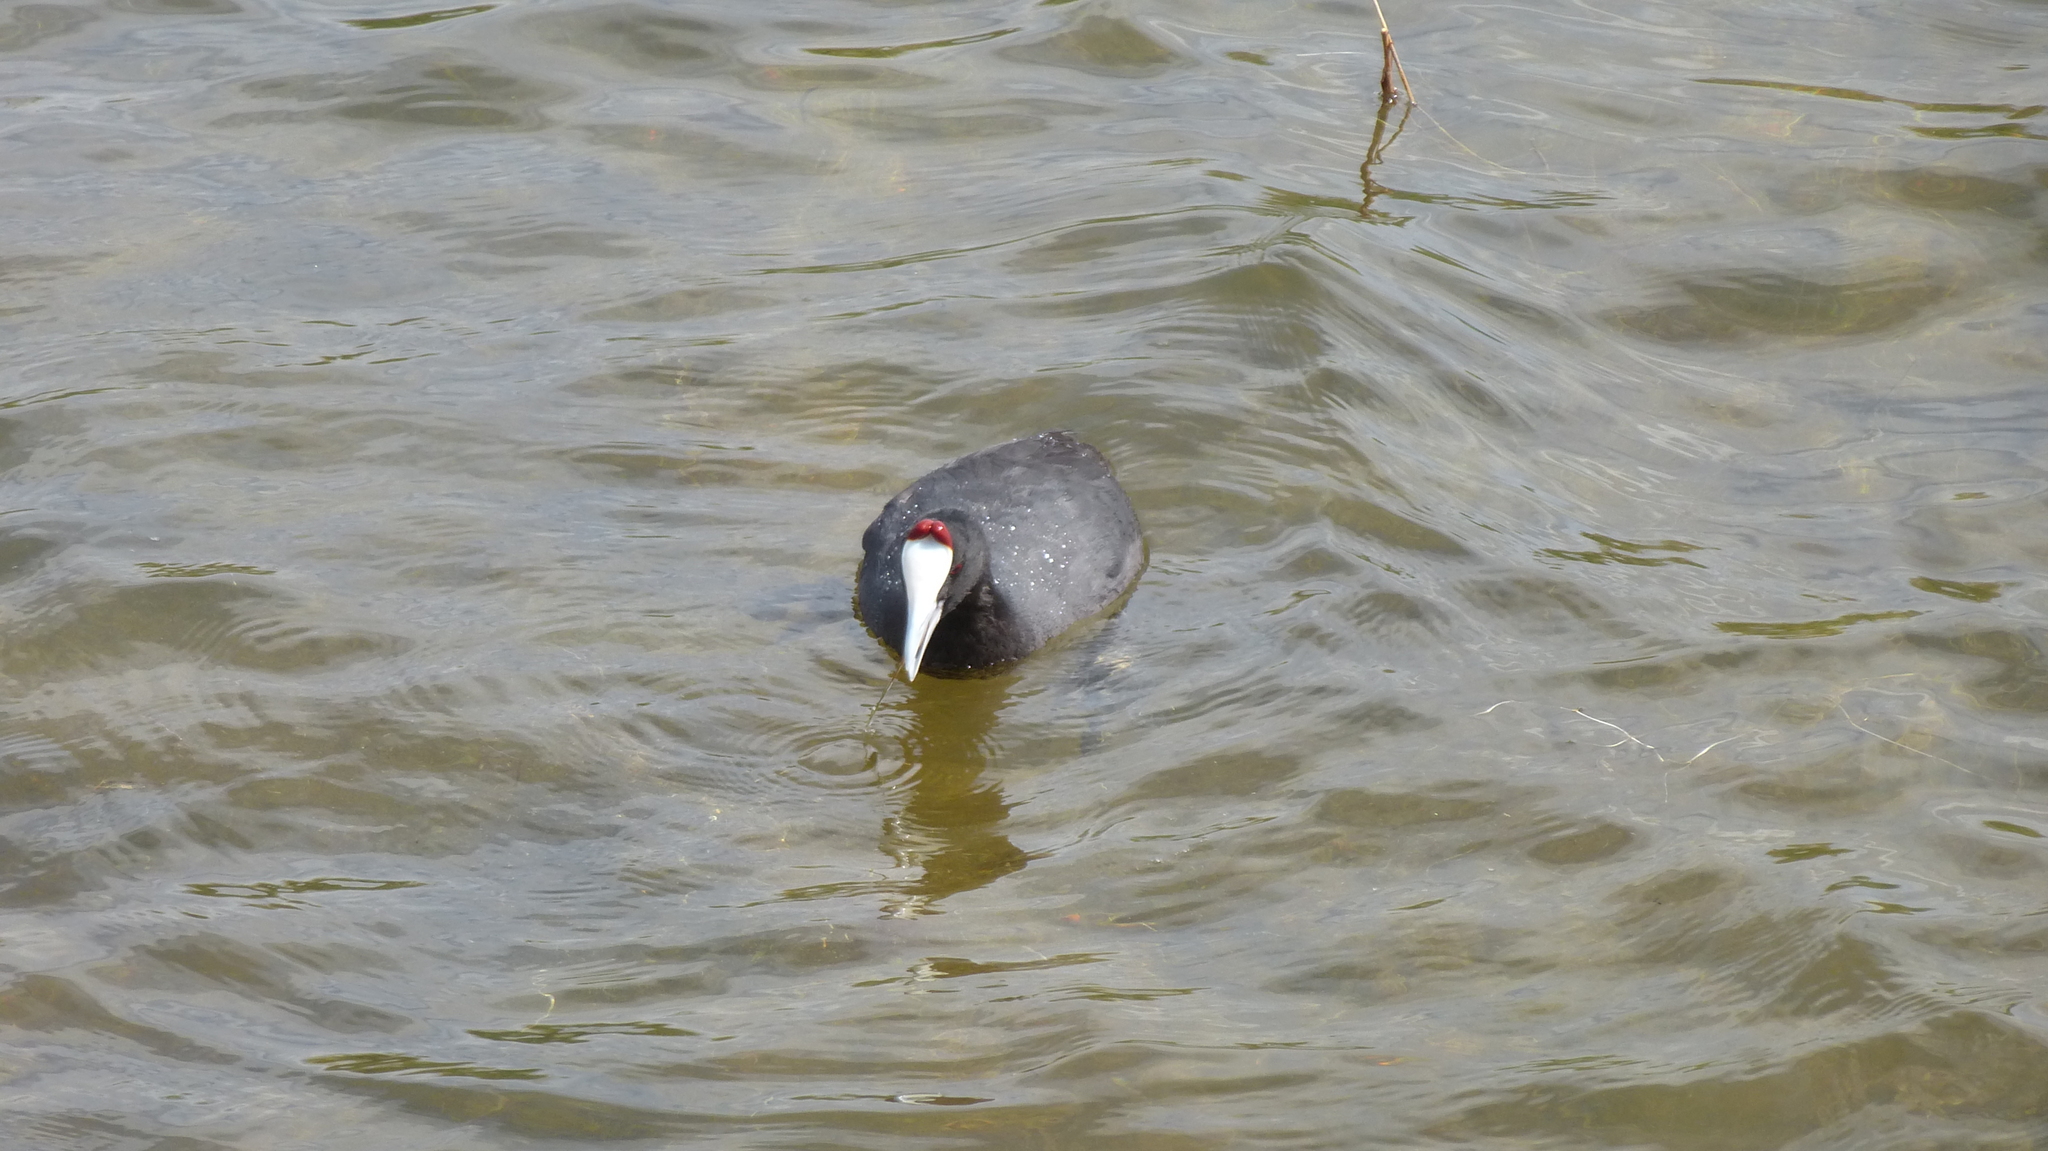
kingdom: Animalia
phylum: Chordata
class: Aves
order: Gruiformes
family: Rallidae
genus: Fulica
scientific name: Fulica cristata
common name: Red-knobbed coot
